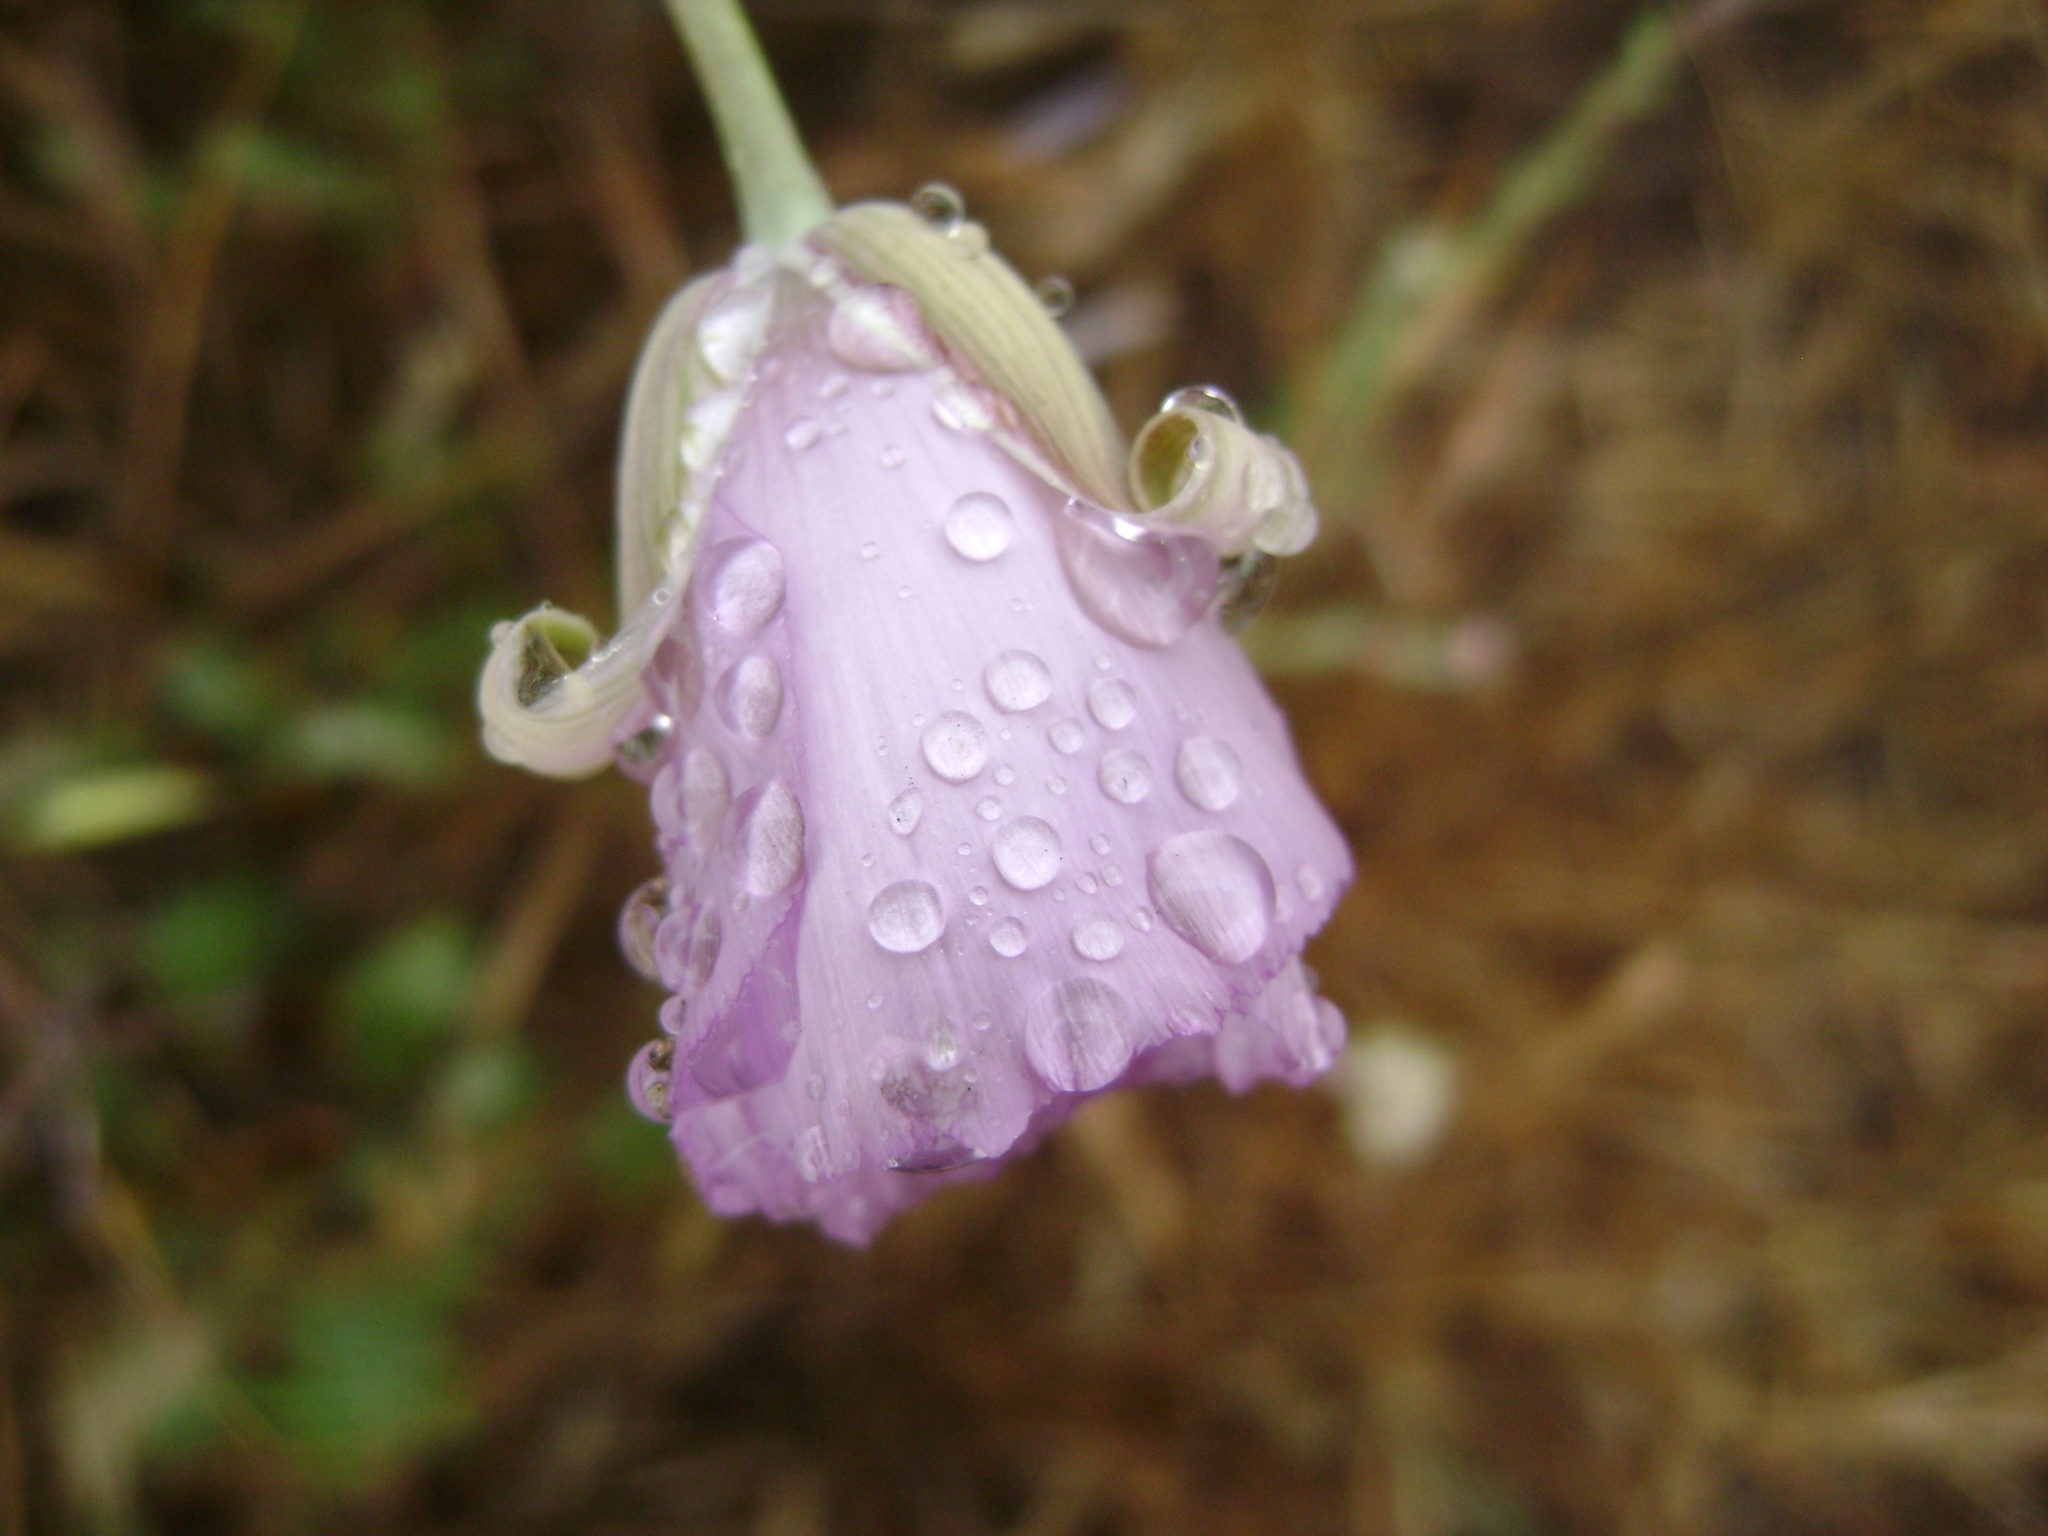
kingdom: Plantae
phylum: Tracheophyta
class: Liliopsida
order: Liliales
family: Liliaceae
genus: Calochortus
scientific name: Calochortus splendens
